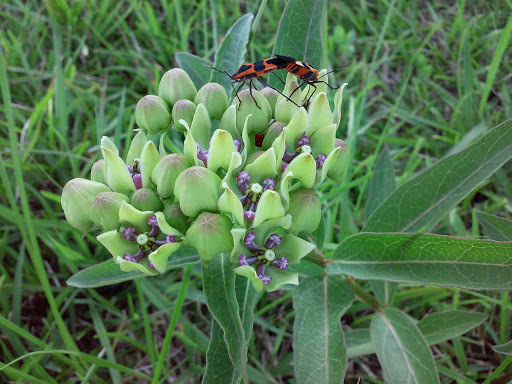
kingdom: Plantae
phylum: Tracheophyta
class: Magnoliopsida
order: Gentianales
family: Apocynaceae
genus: Asclepias
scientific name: Asclepias viridis
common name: Antelope-horns
